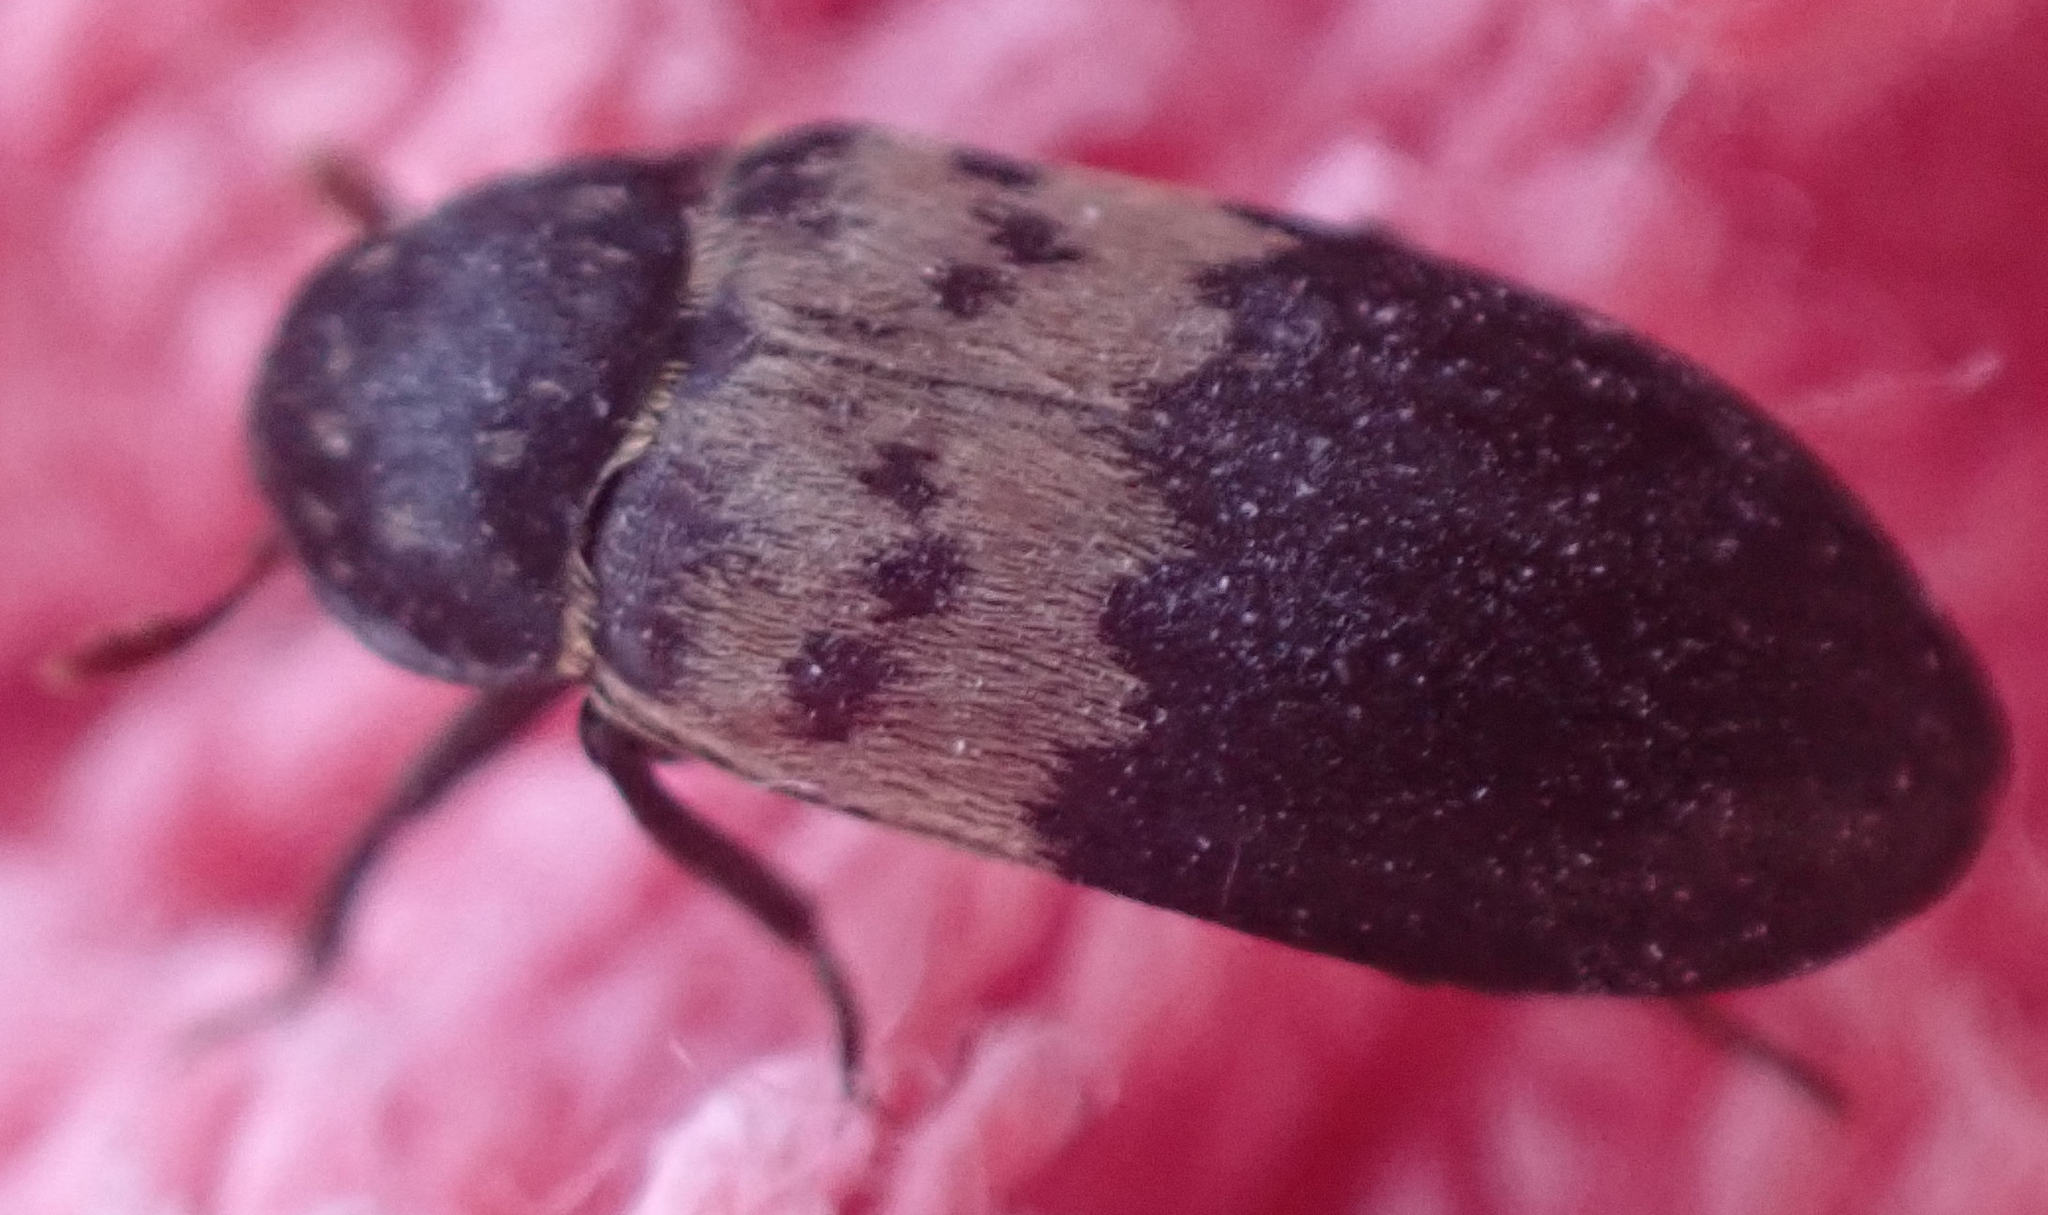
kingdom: Animalia
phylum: Arthropoda
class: Insecta
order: Coleoptera
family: Dermestidae
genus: Dermestes
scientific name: Dermestes lardarius
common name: Larder beetle
